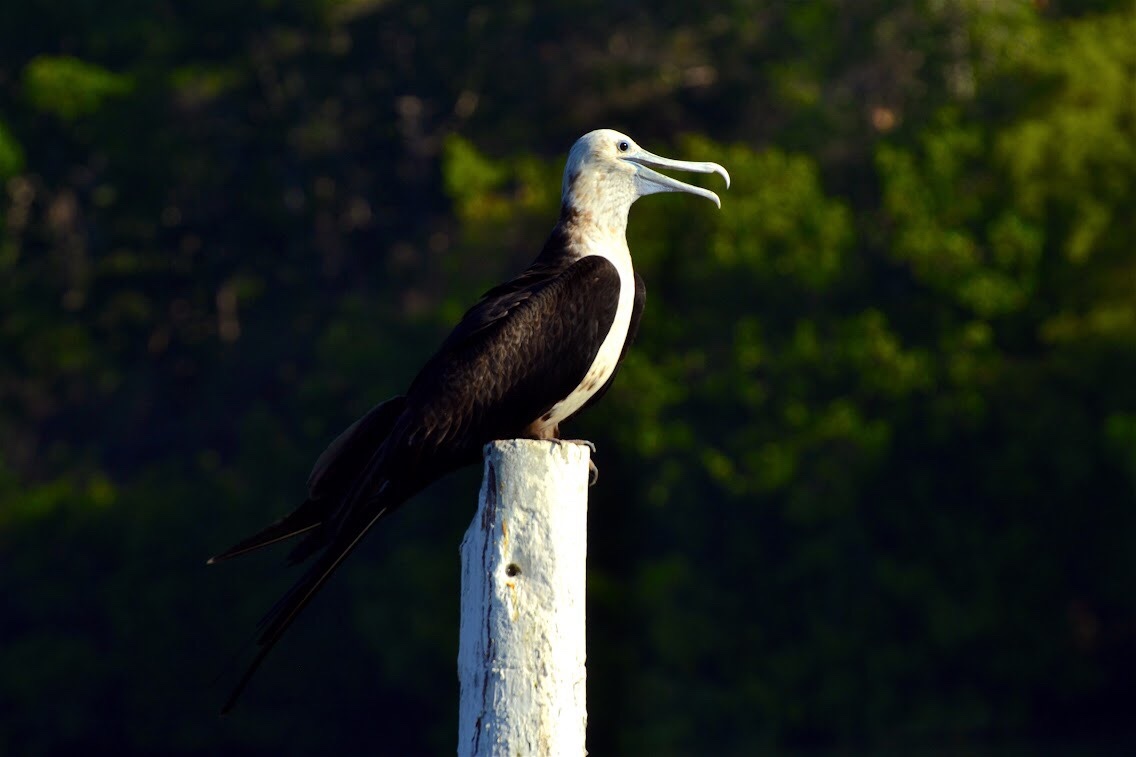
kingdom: Animalia
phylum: Chordata
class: Aves
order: Suliformes
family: Fregatidae
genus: Fregata
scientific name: Fregata magnificens
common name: Magnificent frigatebird
